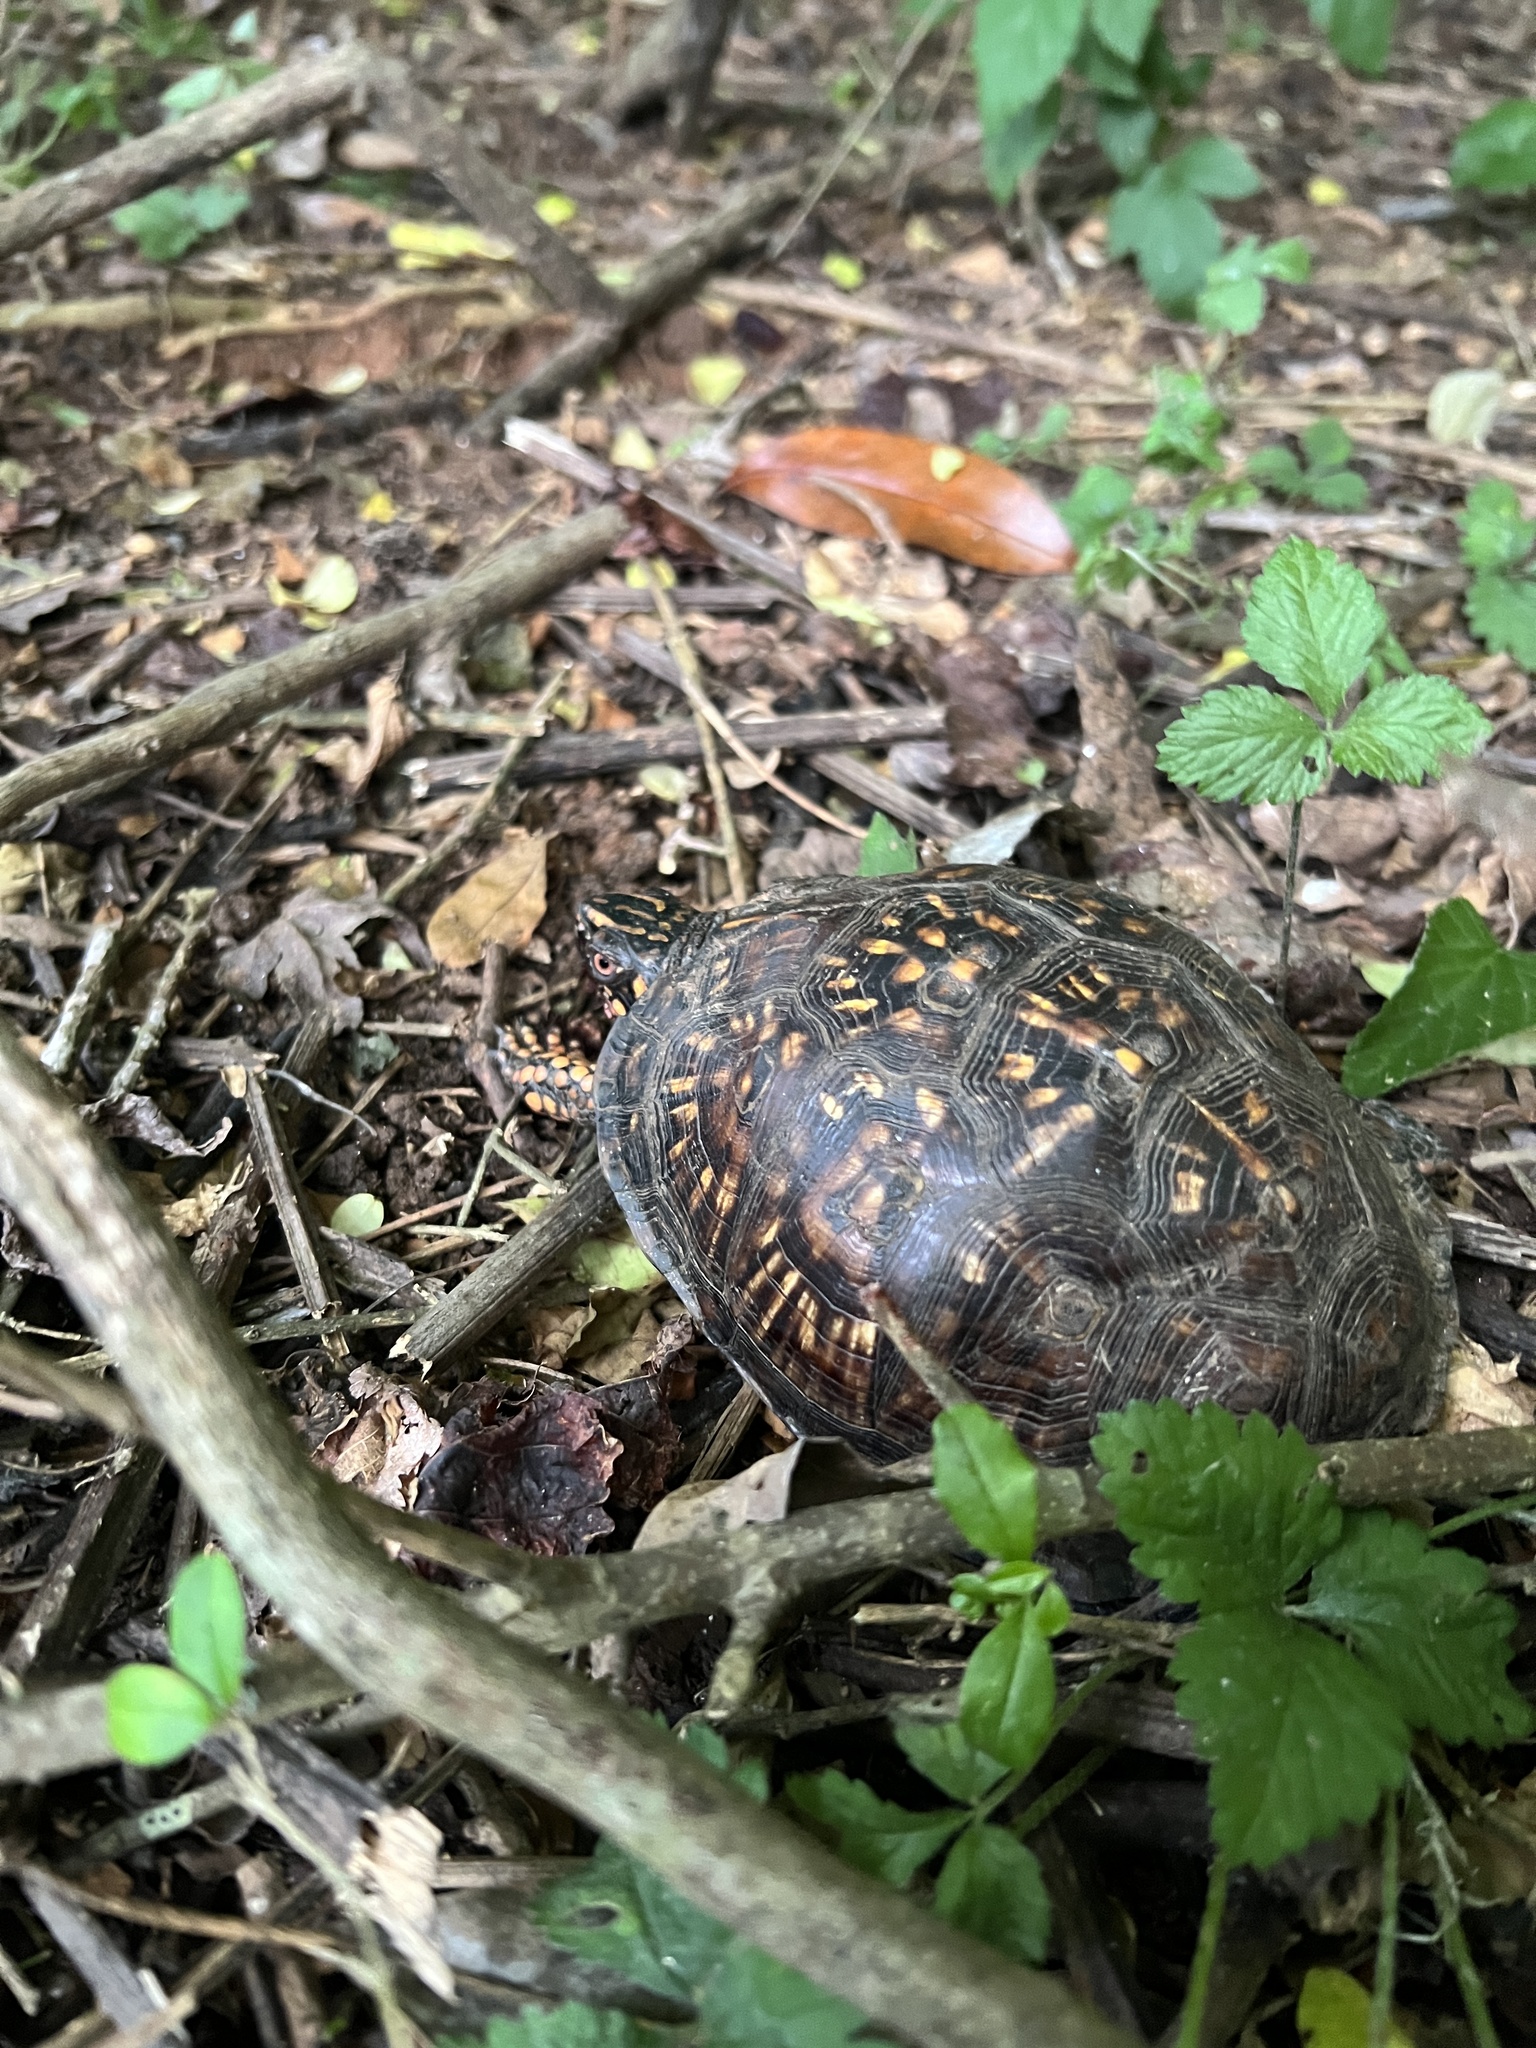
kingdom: Animalia
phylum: Chordata
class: Testudines
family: Emydidae
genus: Terrapene
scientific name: Terrapene carolina
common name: Common box turtle
